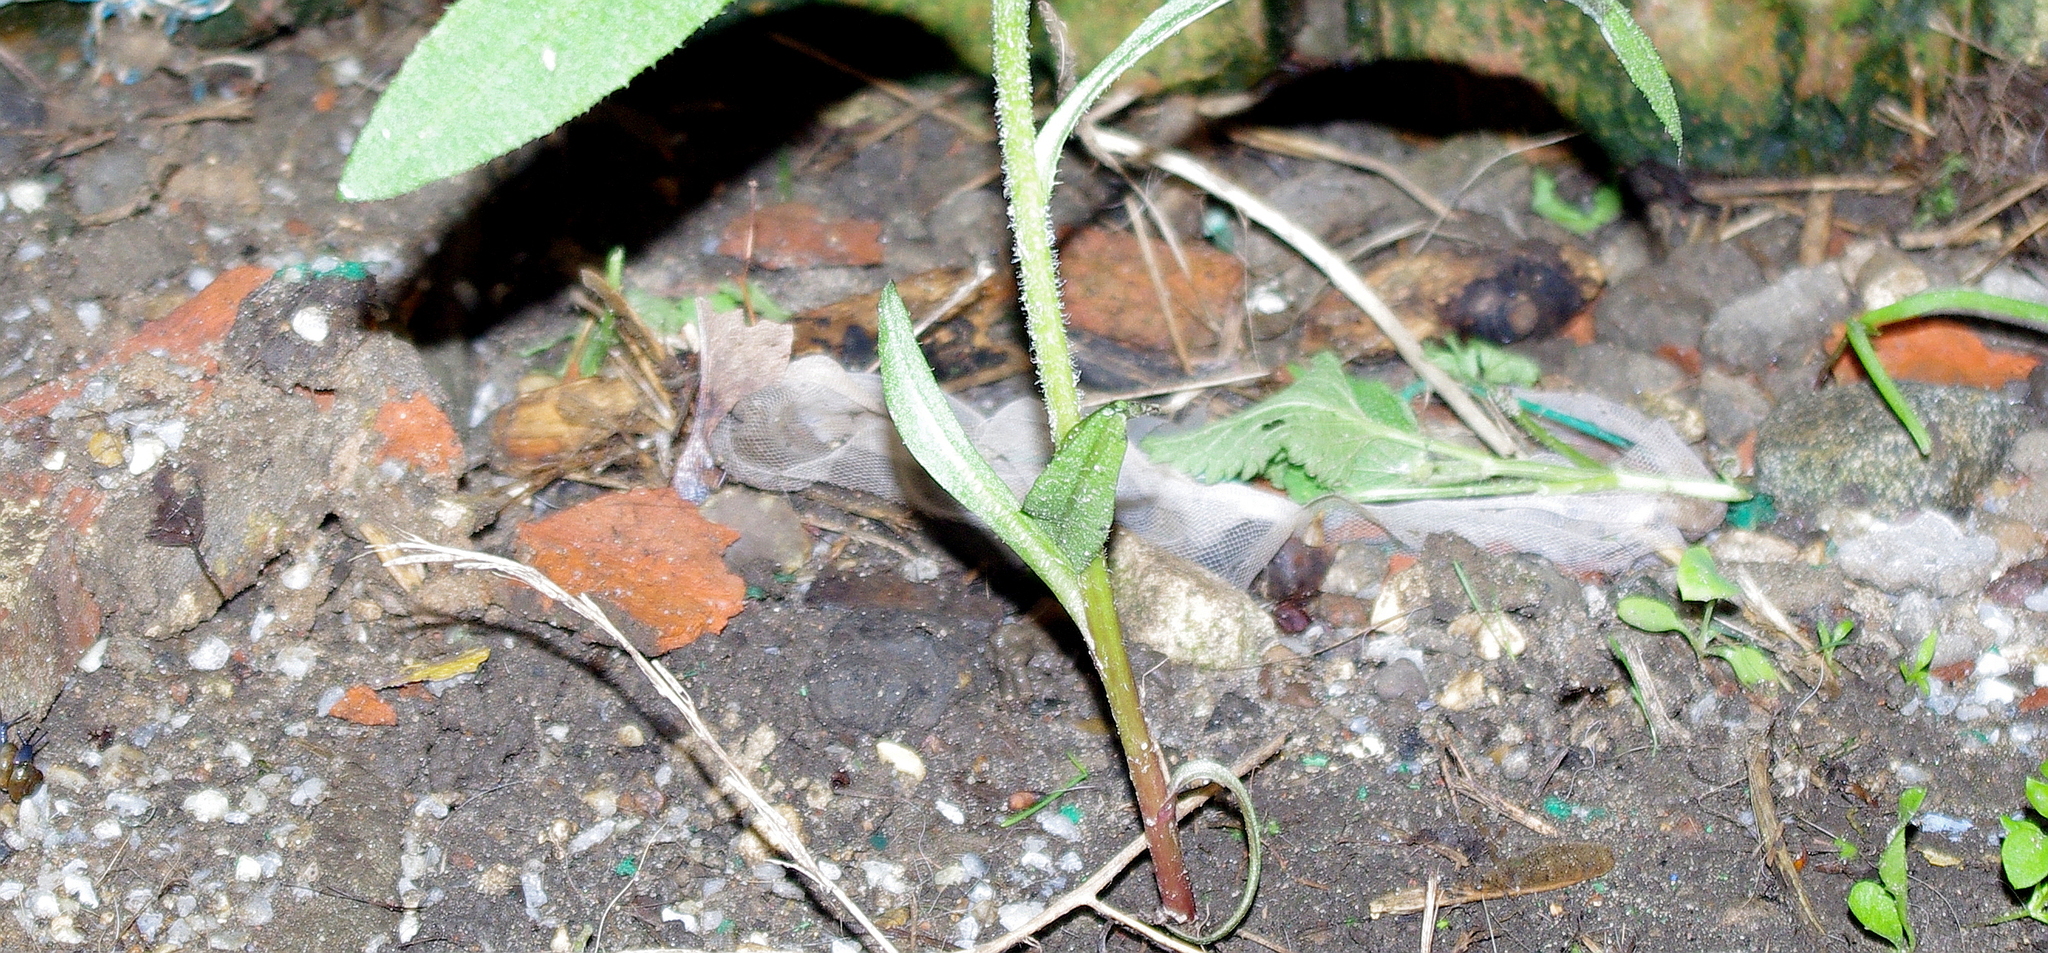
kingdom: Plantae
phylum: Tracheophyta
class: Magnoliopsida
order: Asterales
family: Asteraceae
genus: Cirsium
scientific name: Cirsium arvense
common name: Creeping thistle
